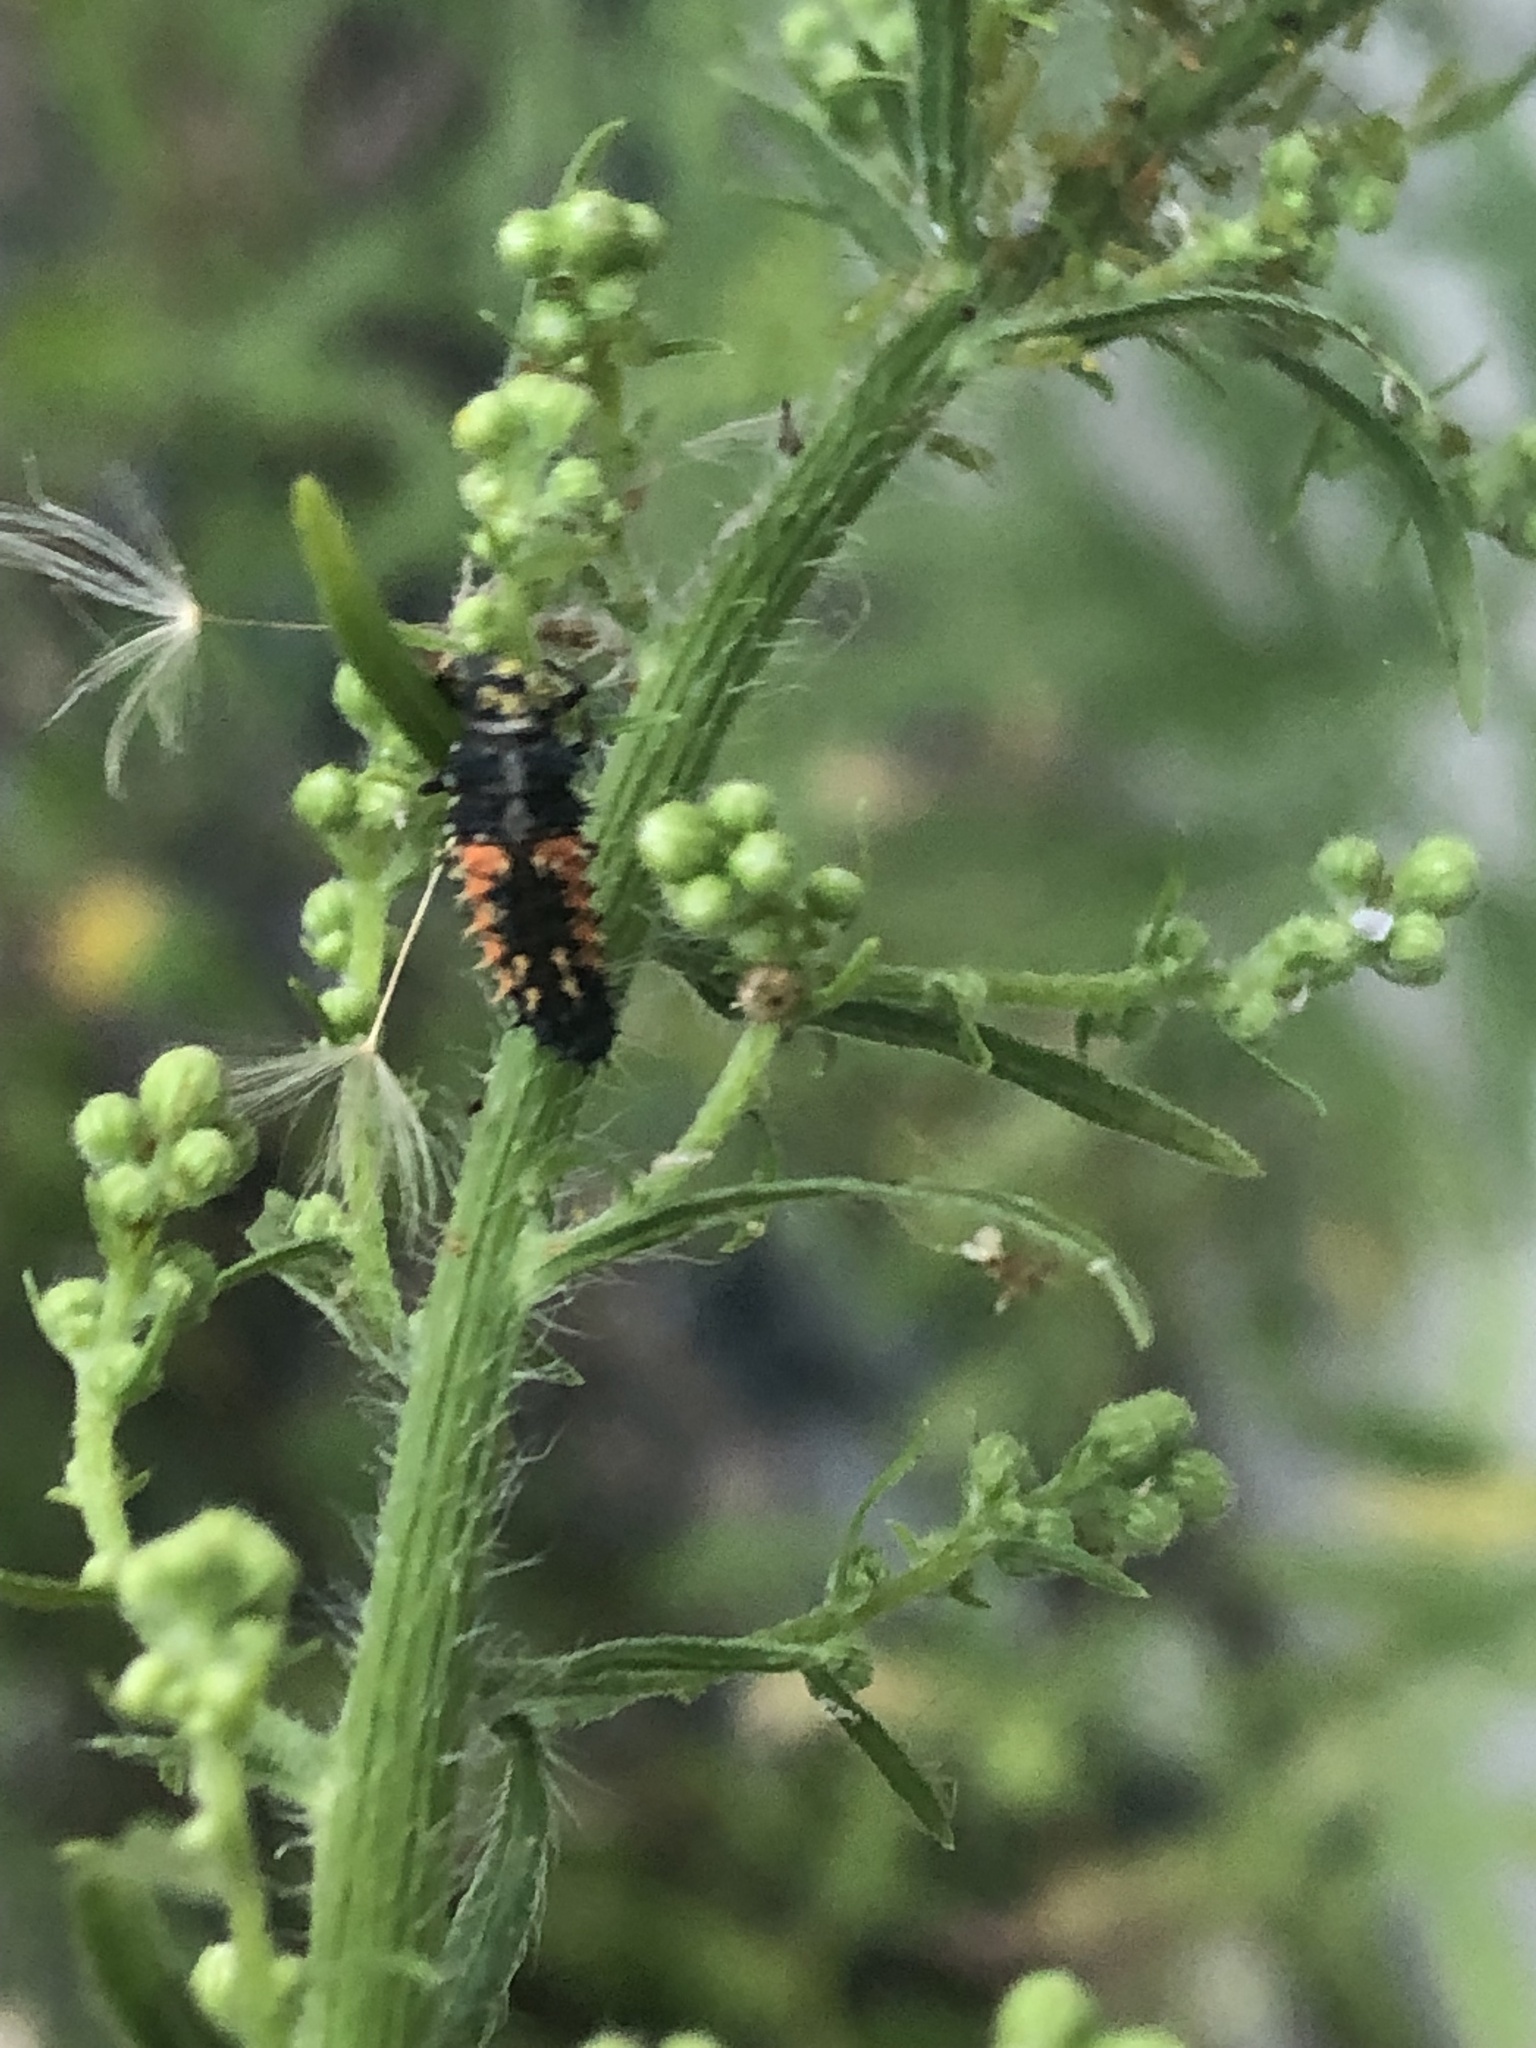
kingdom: Animalia
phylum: Arthropoda
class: Insecta
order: Coleoptera
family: Coccinellidae
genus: Harmonia
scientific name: Harmonia axyridis
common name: Harlequin ladybird
